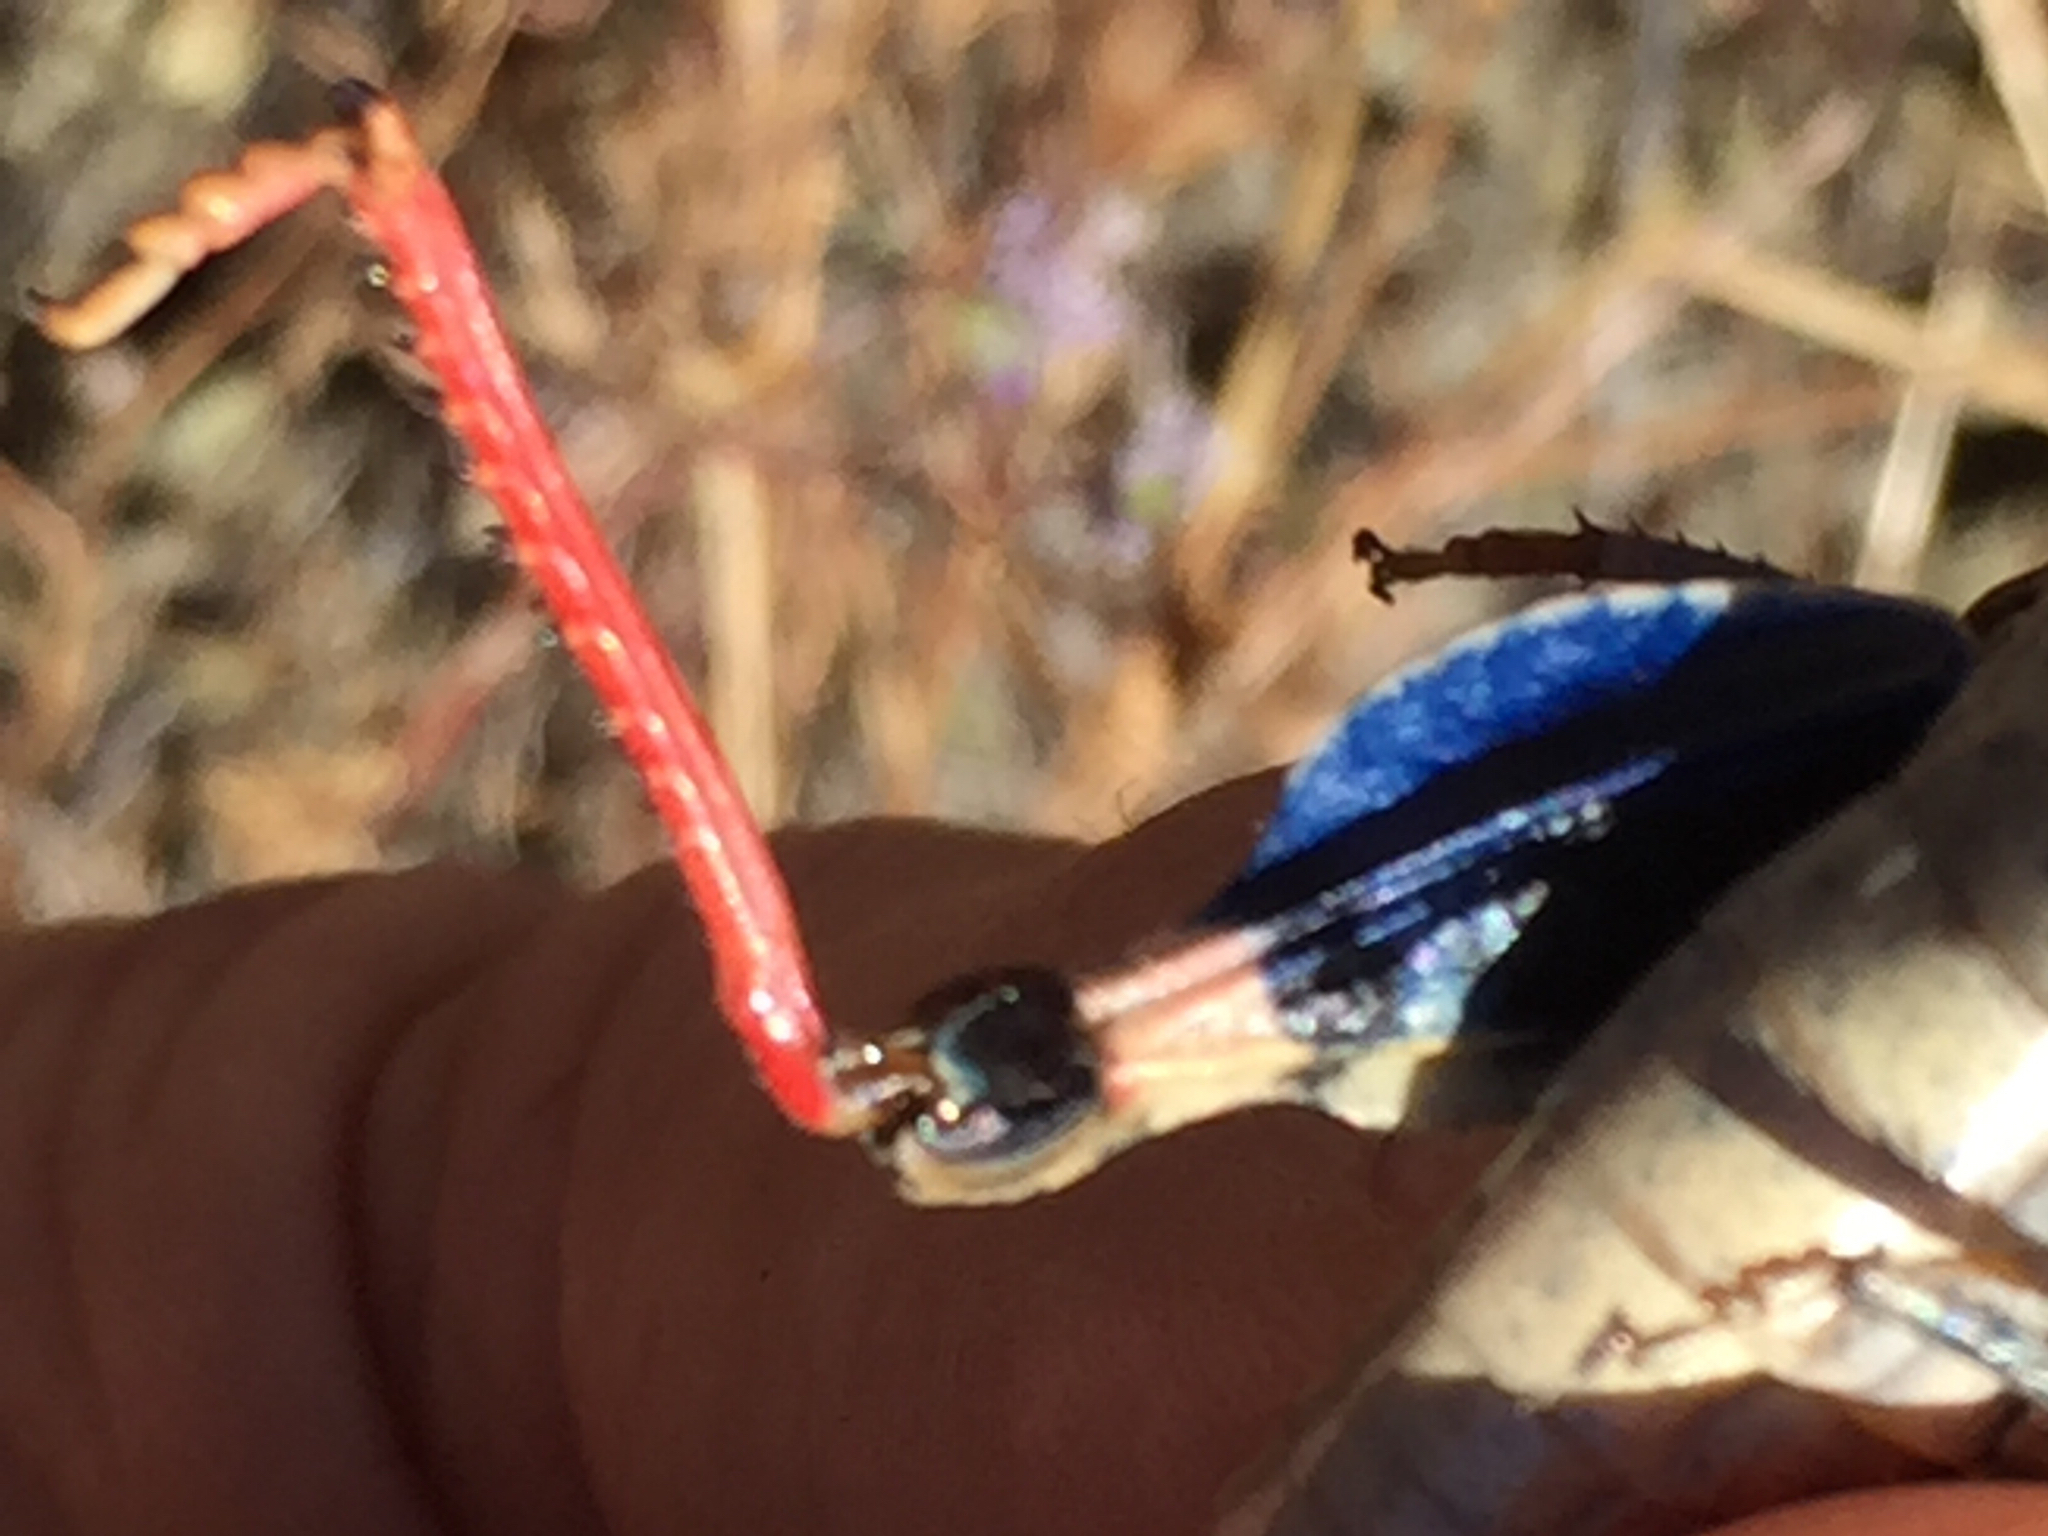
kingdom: Animalia
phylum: Arthropoda
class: Insecta
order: Orthoptera
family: Acrididae
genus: Agymnastus
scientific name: Agymnastus ingens
